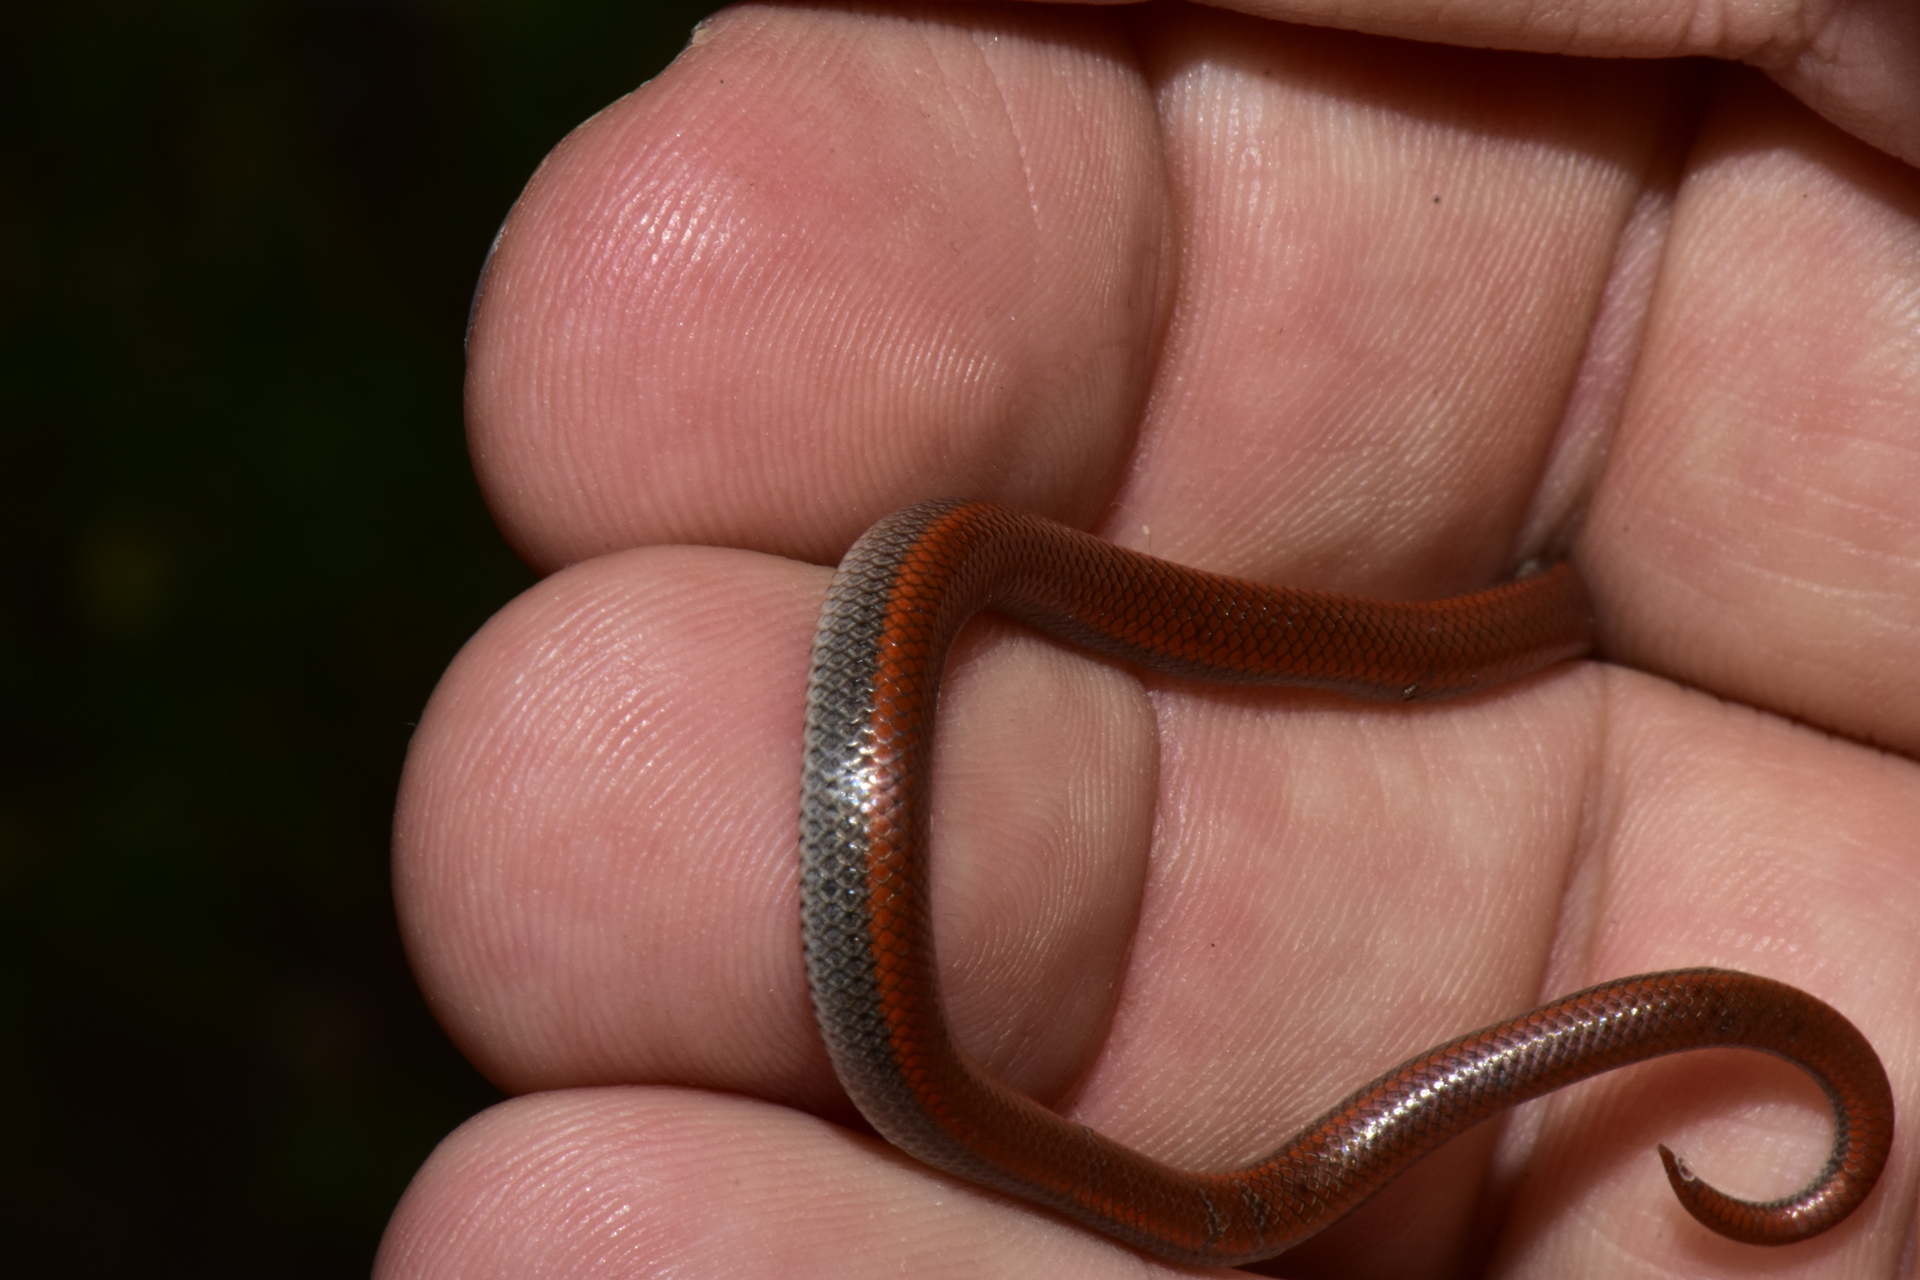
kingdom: Animalia
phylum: Chordata
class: Squamata
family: Colubridae
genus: Contia
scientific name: Contia tenuis
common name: Sharptail snake
